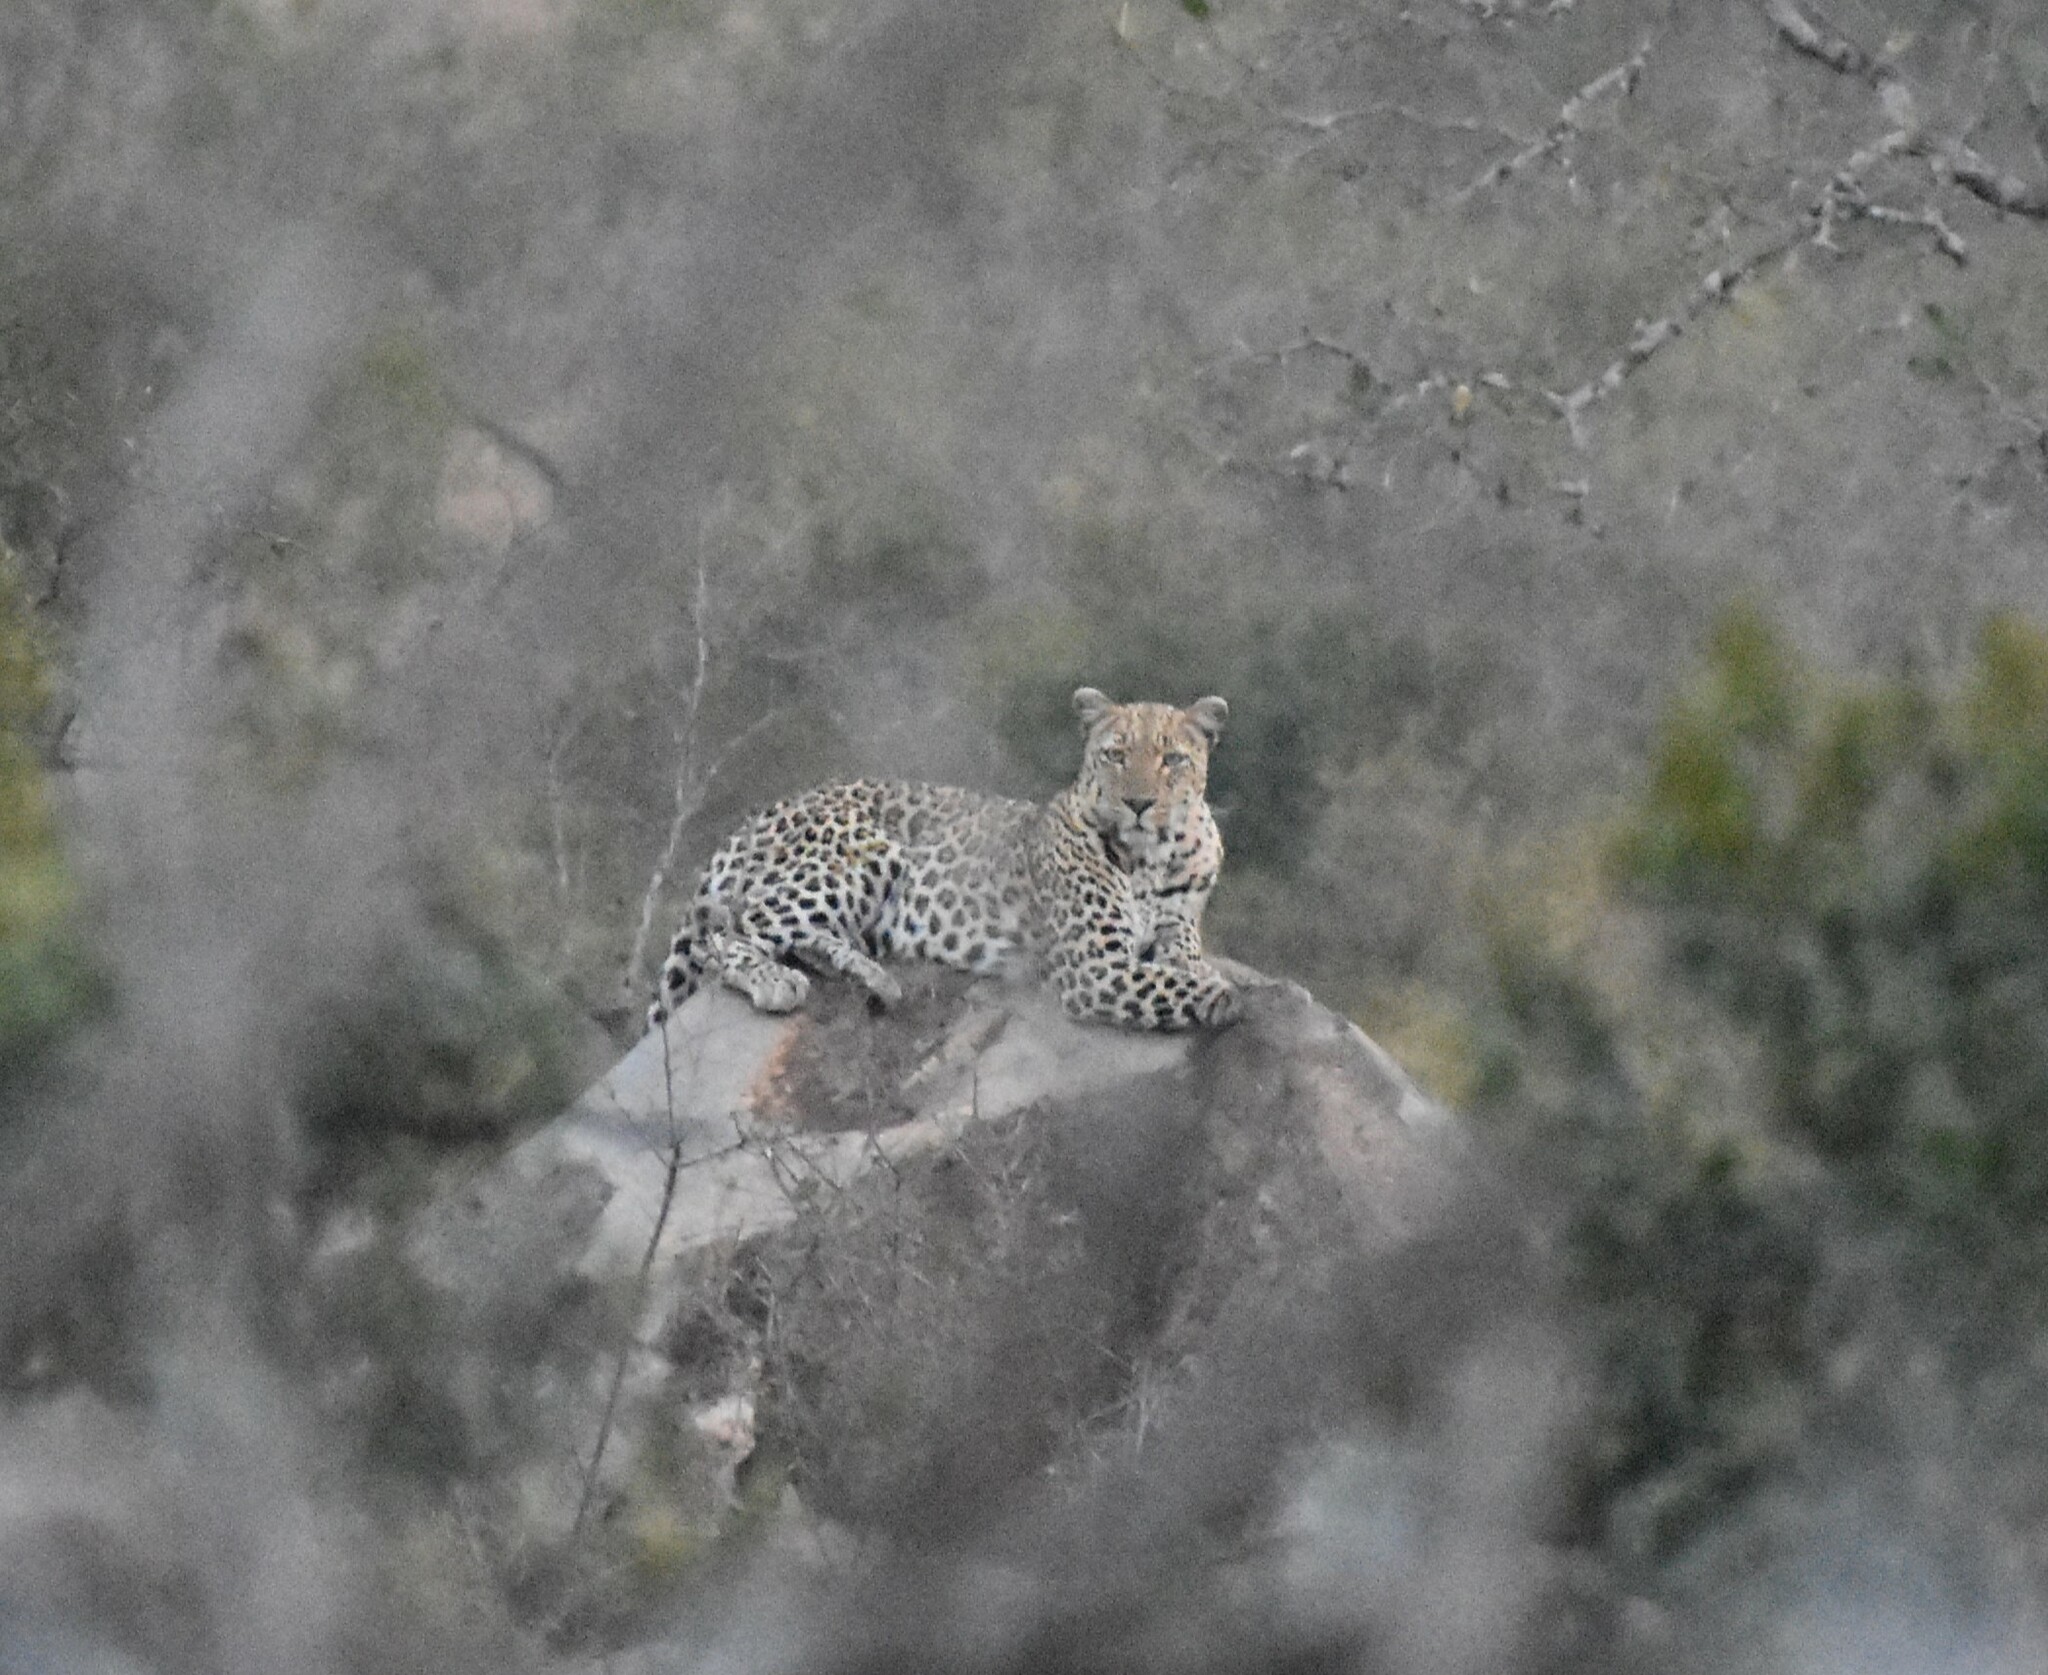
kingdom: Animalia
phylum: Chordata
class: Mammalia
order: Carnivora
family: Felidae
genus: Panthera
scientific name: Panthera pardus
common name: Leopard
